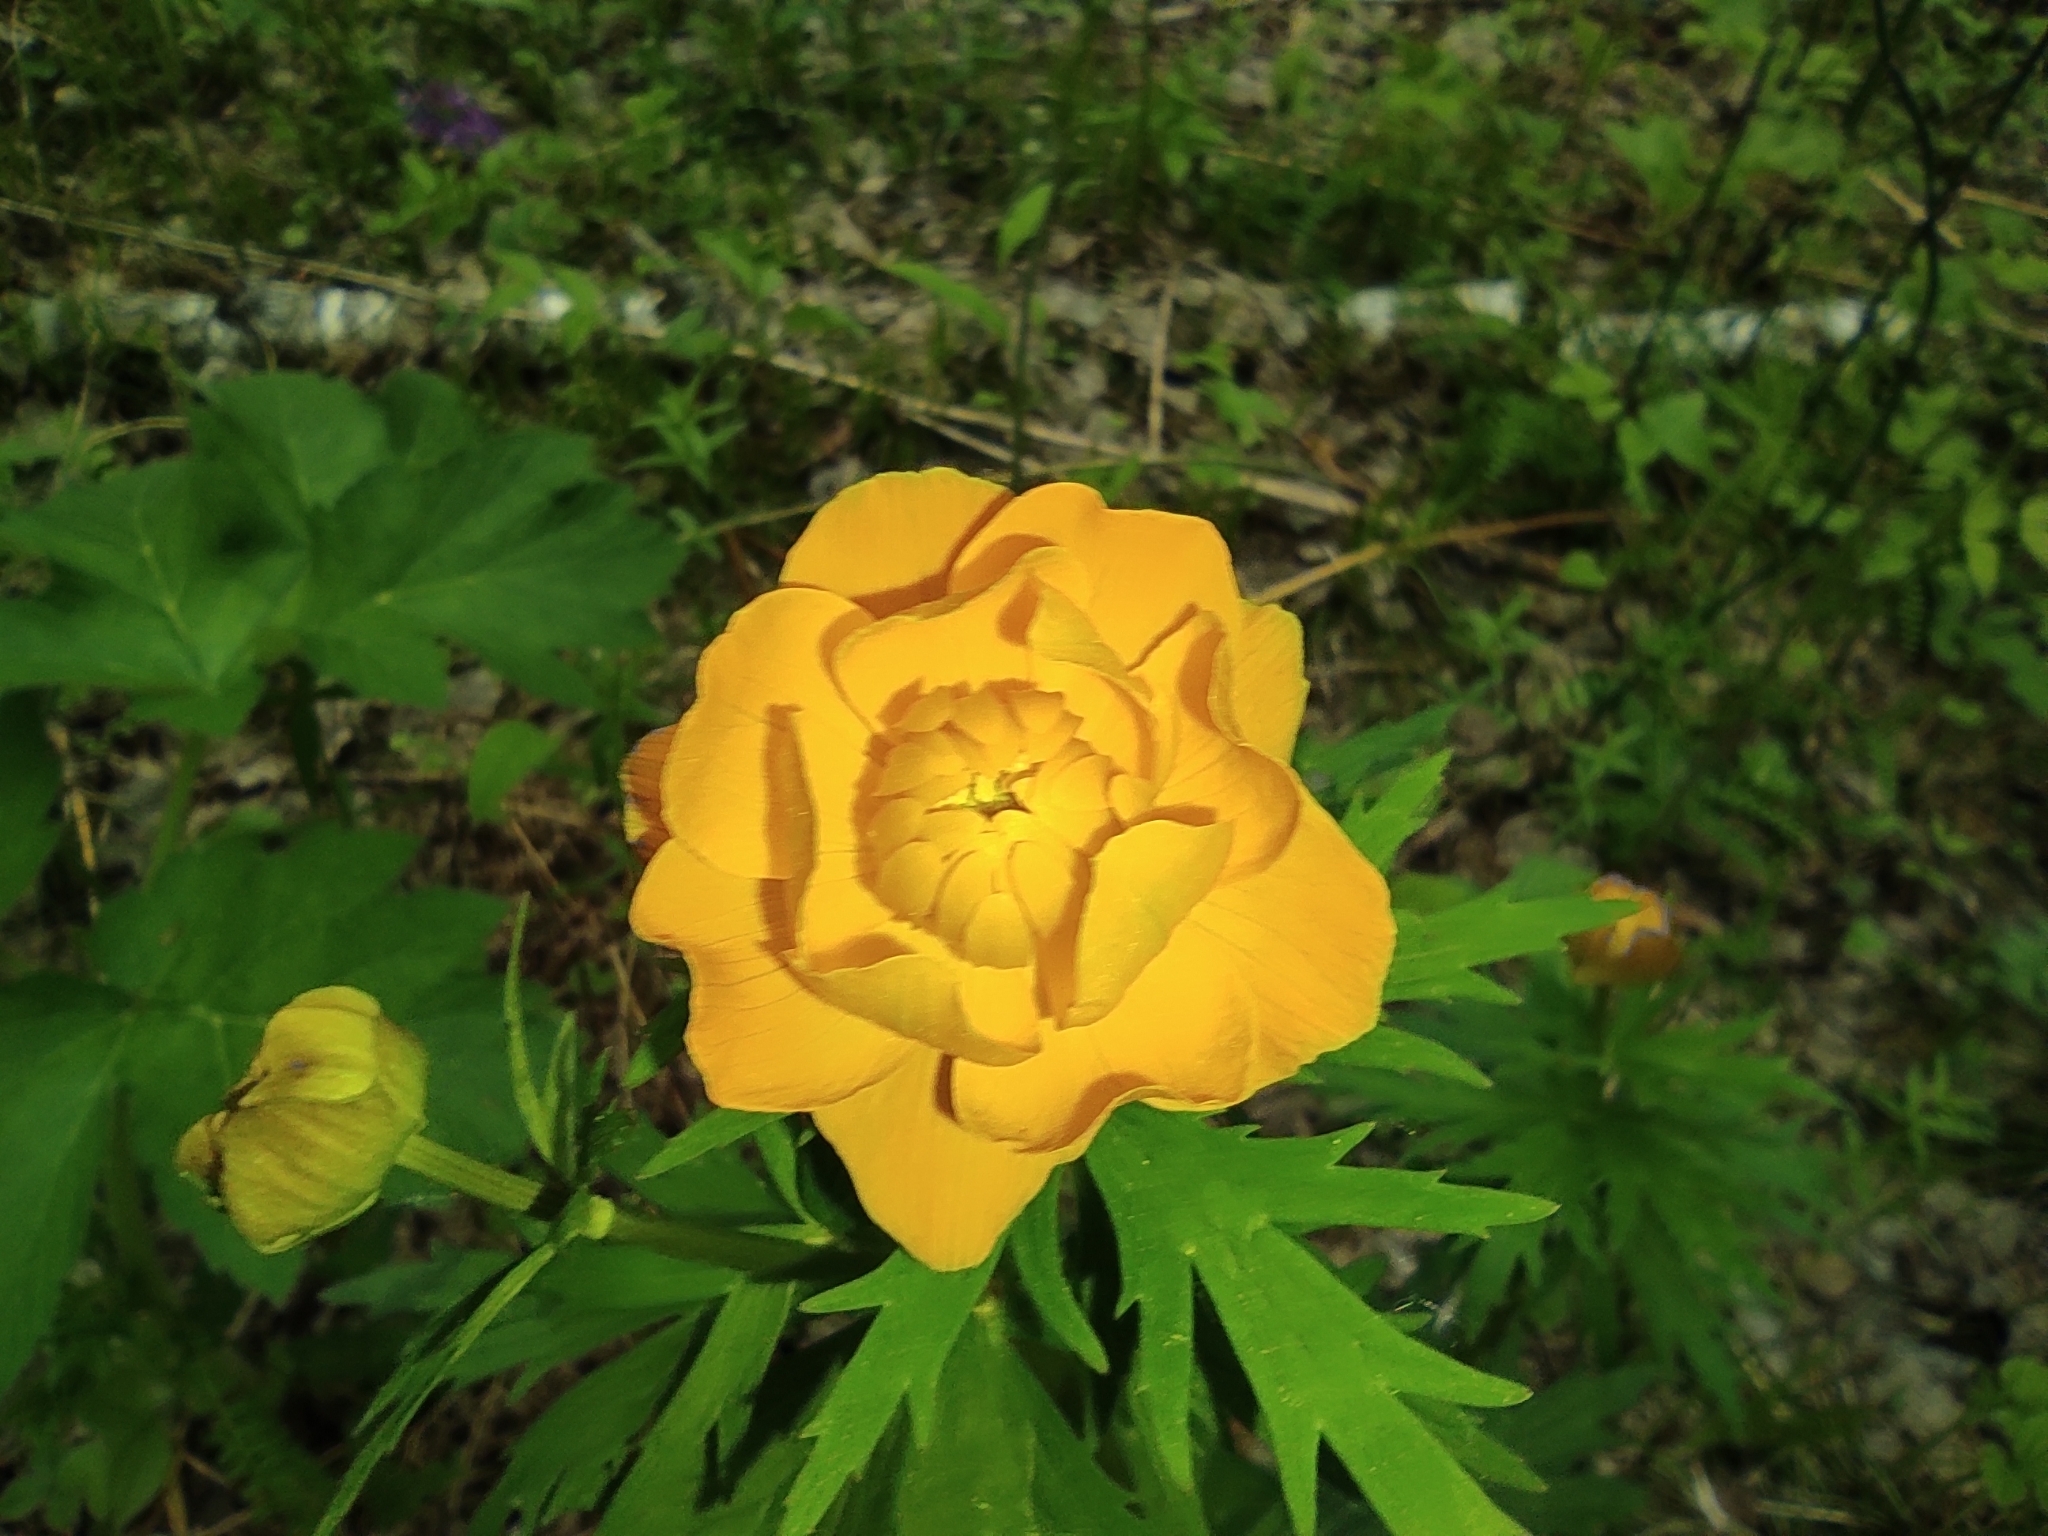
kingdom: Plantae
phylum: Tracheophyta
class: Magnoliopsida
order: Ranunculales
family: Ranunculaceae
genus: Trollius
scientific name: Trollius asiaticus
